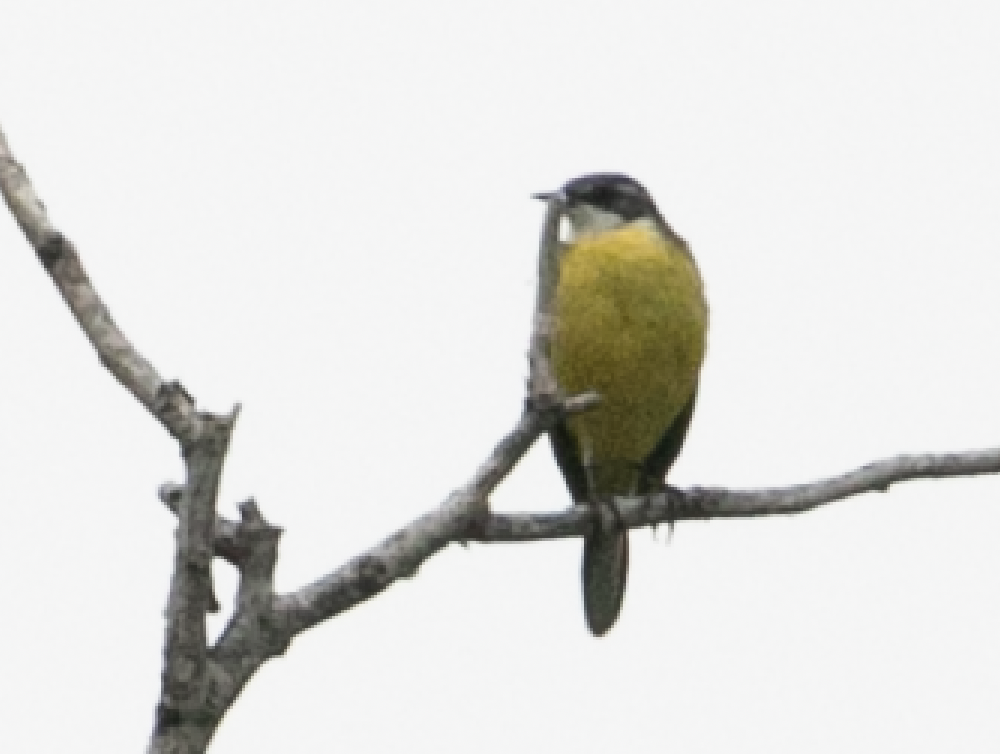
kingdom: Animalia
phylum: Chordata
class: Aves
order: Passeriformes
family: Motacillidae
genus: Motacilla
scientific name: Motacilla flava
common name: Western yellow wagtail
